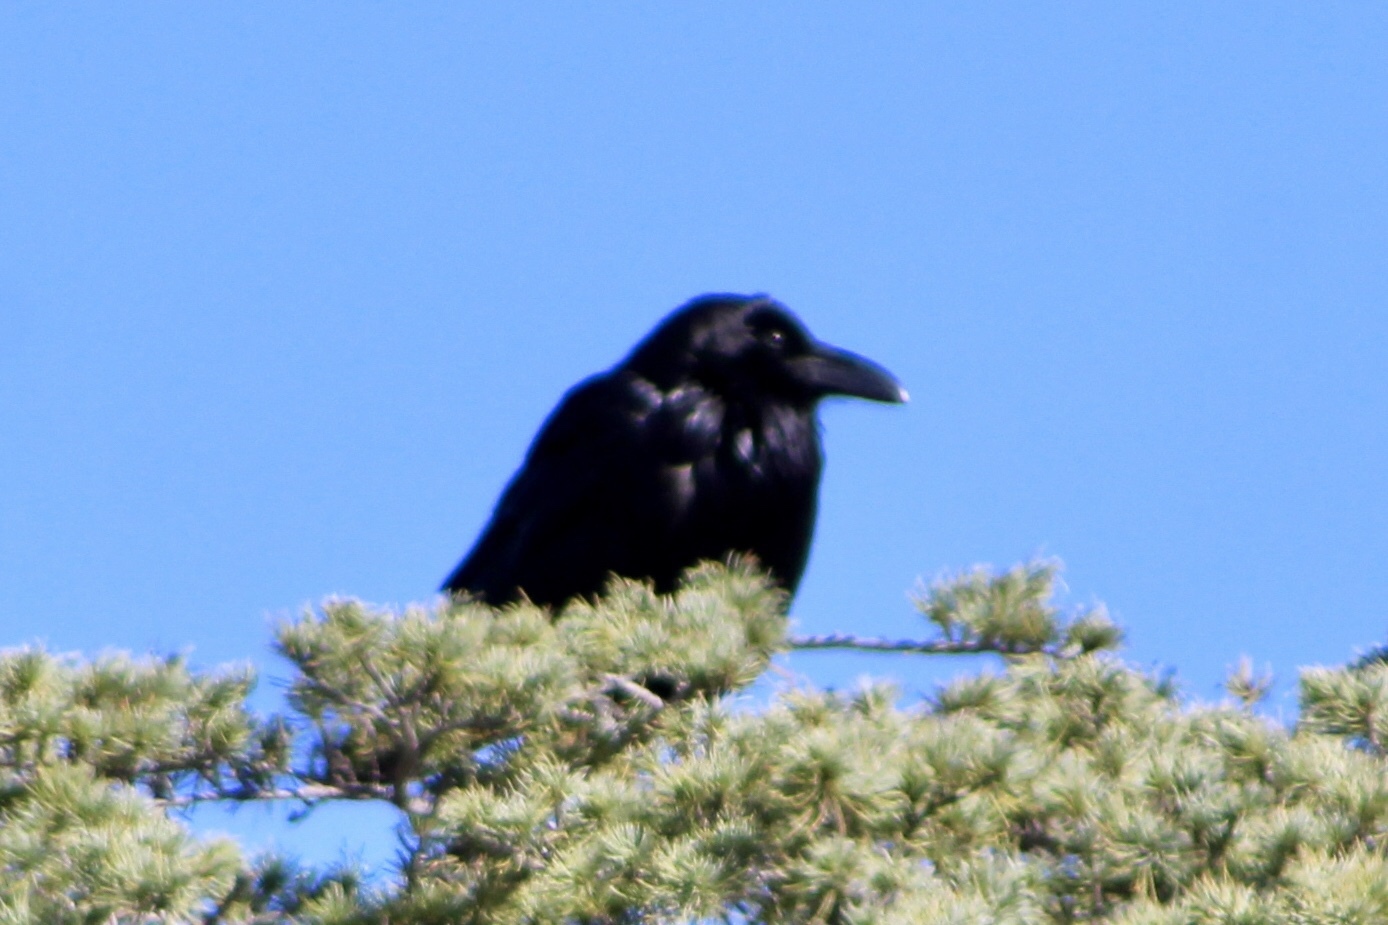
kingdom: Animalia
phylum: Chordata
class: Aves
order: Passeriformes
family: Corvidae
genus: Corvus
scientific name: Corvus corax
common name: Common raven
